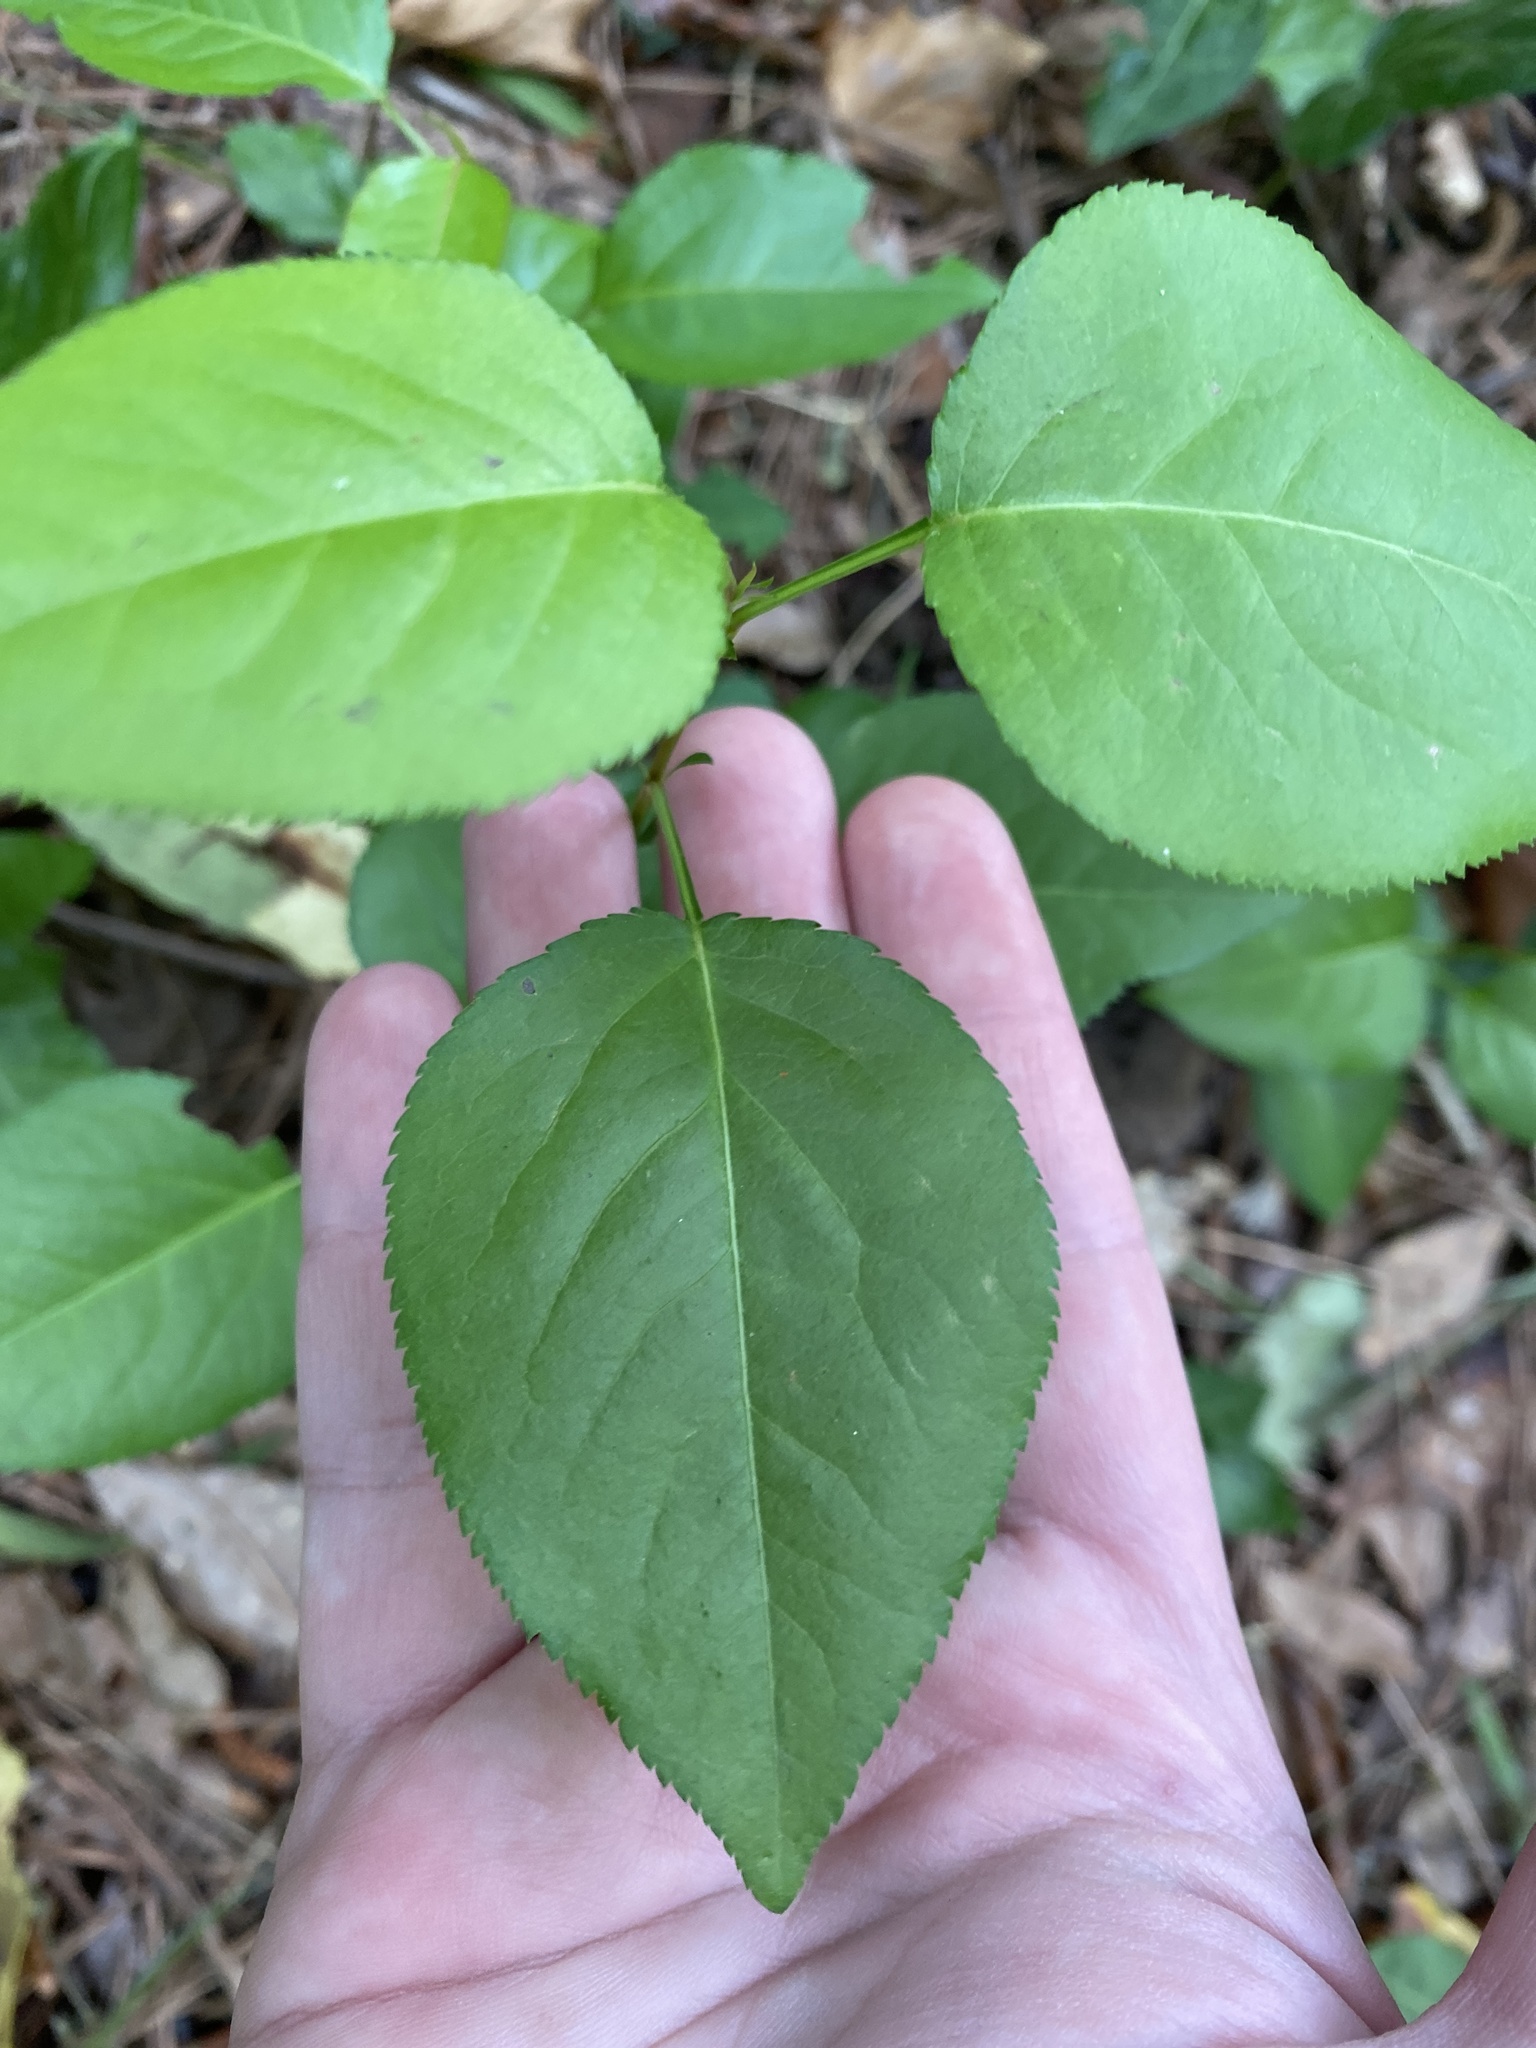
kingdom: Plantae
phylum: Tracheophyta
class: Magnoliopsida
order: Rosales
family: Rosaceae
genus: Pyrus
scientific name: Pyrus calleryana
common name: Callery pear
